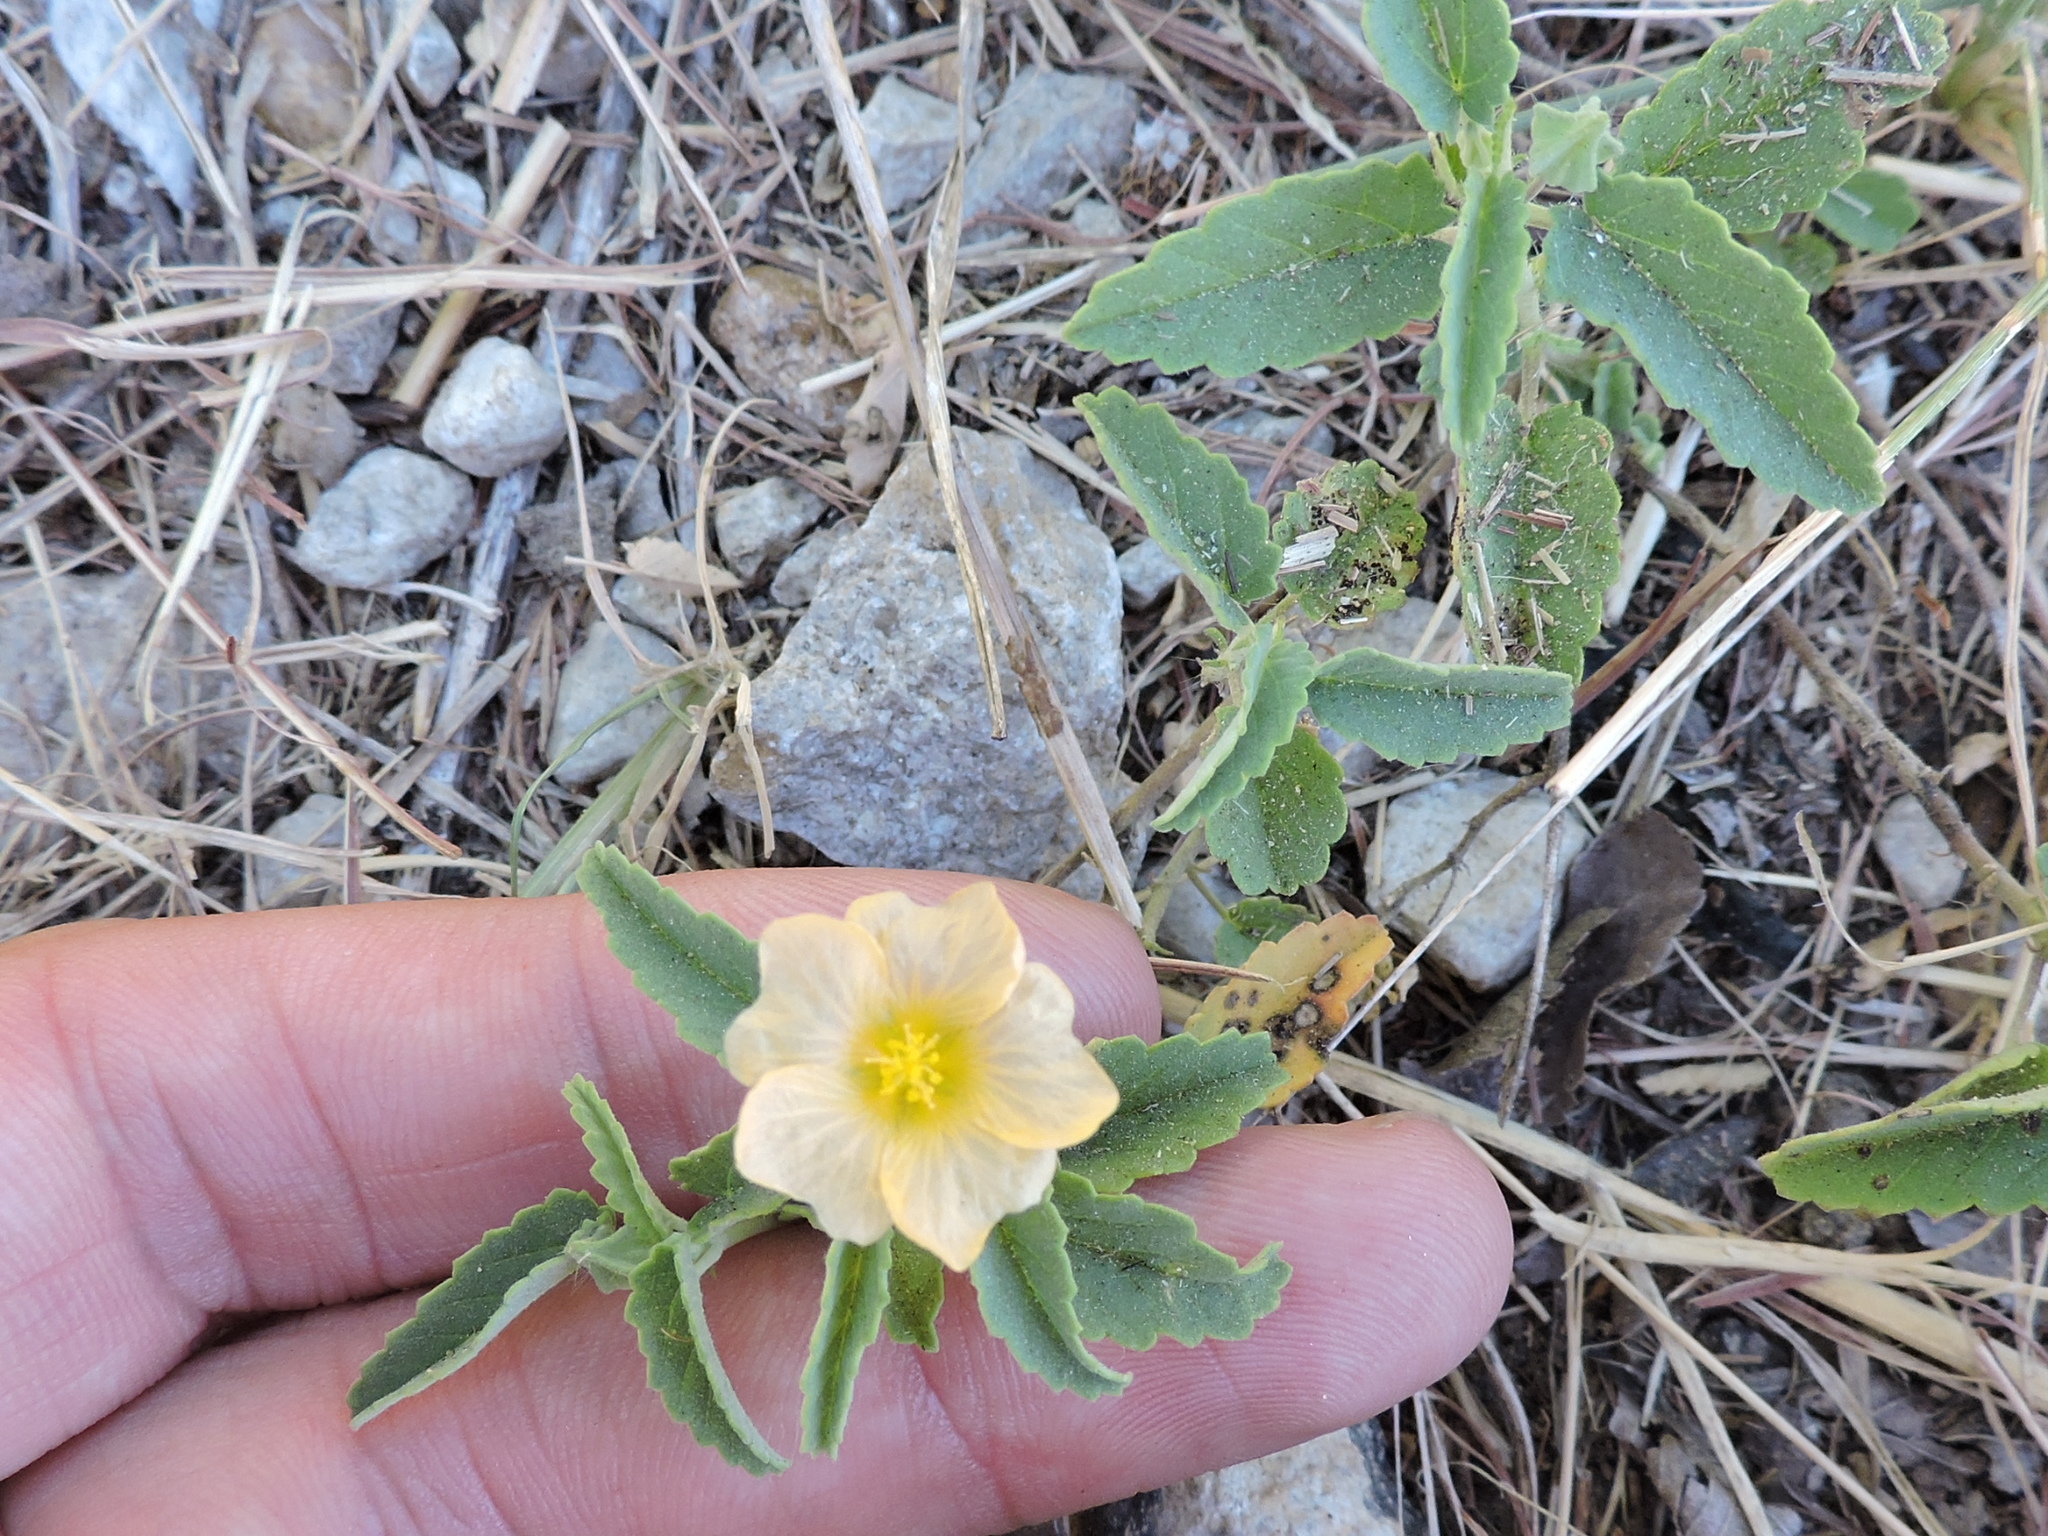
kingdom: Plantae
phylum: Tracheophyta
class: Magnoliopsida
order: Malvales
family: Malvaceae
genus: Sida
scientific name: Sida abutilifolia
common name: Spreading fanpetals
